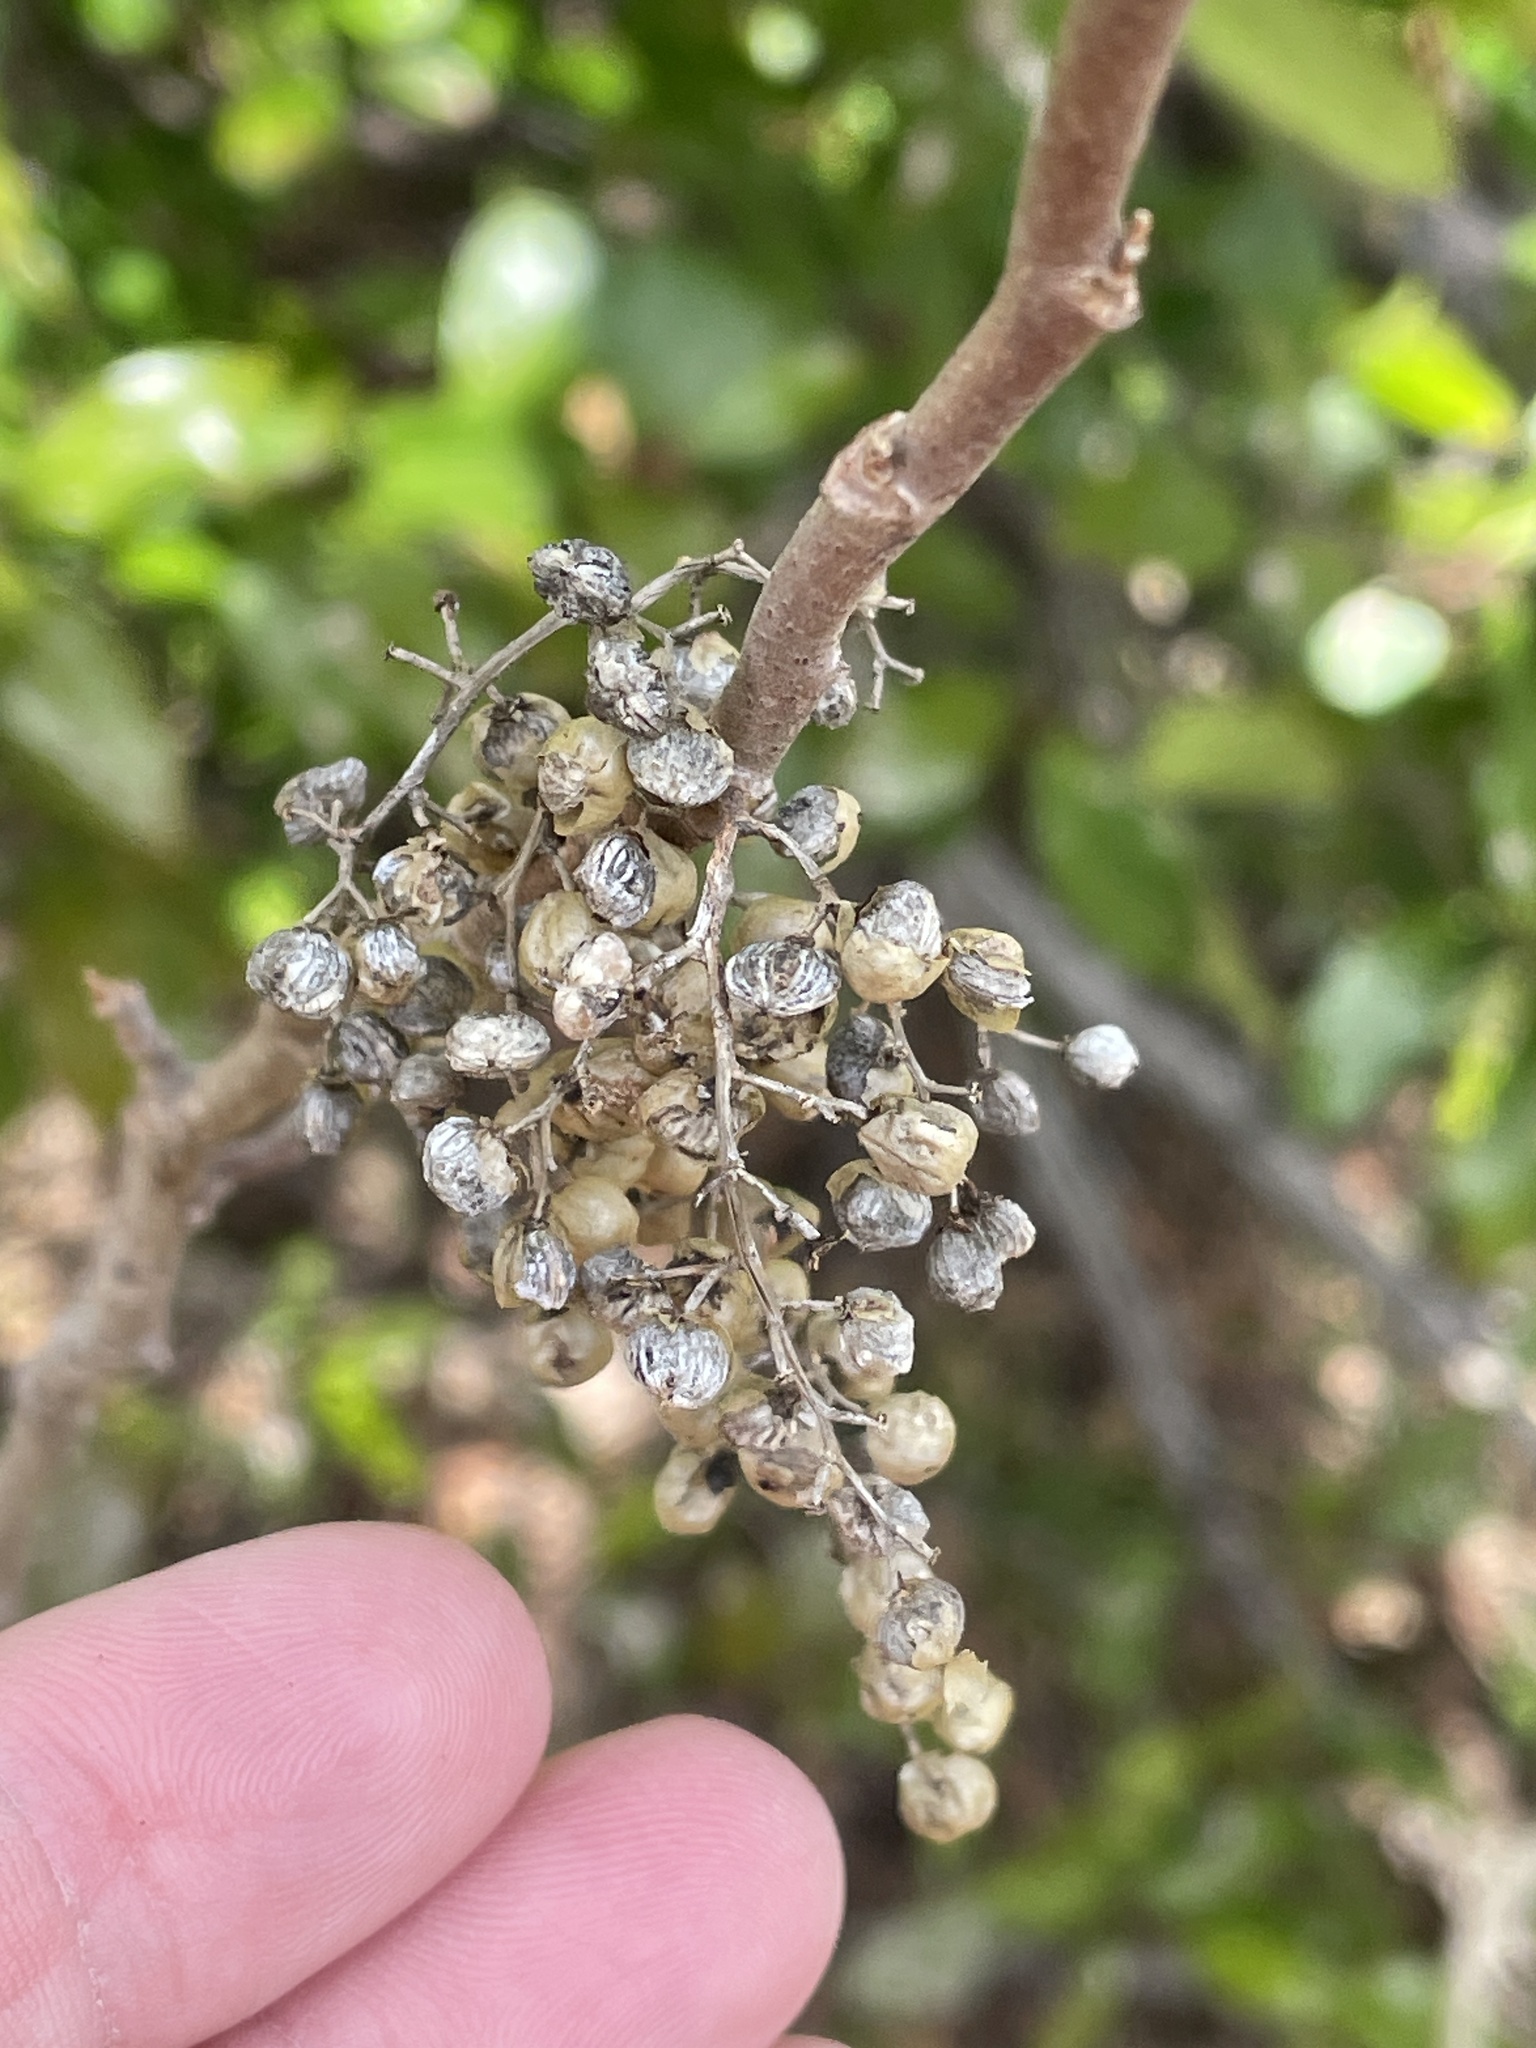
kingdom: Plantae
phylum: Tracheophyta
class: Magnoliopsida
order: Sapindales
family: Anacardiaceae
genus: Toxicodendron
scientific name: Toxicodendron radicans
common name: Poison ivy
